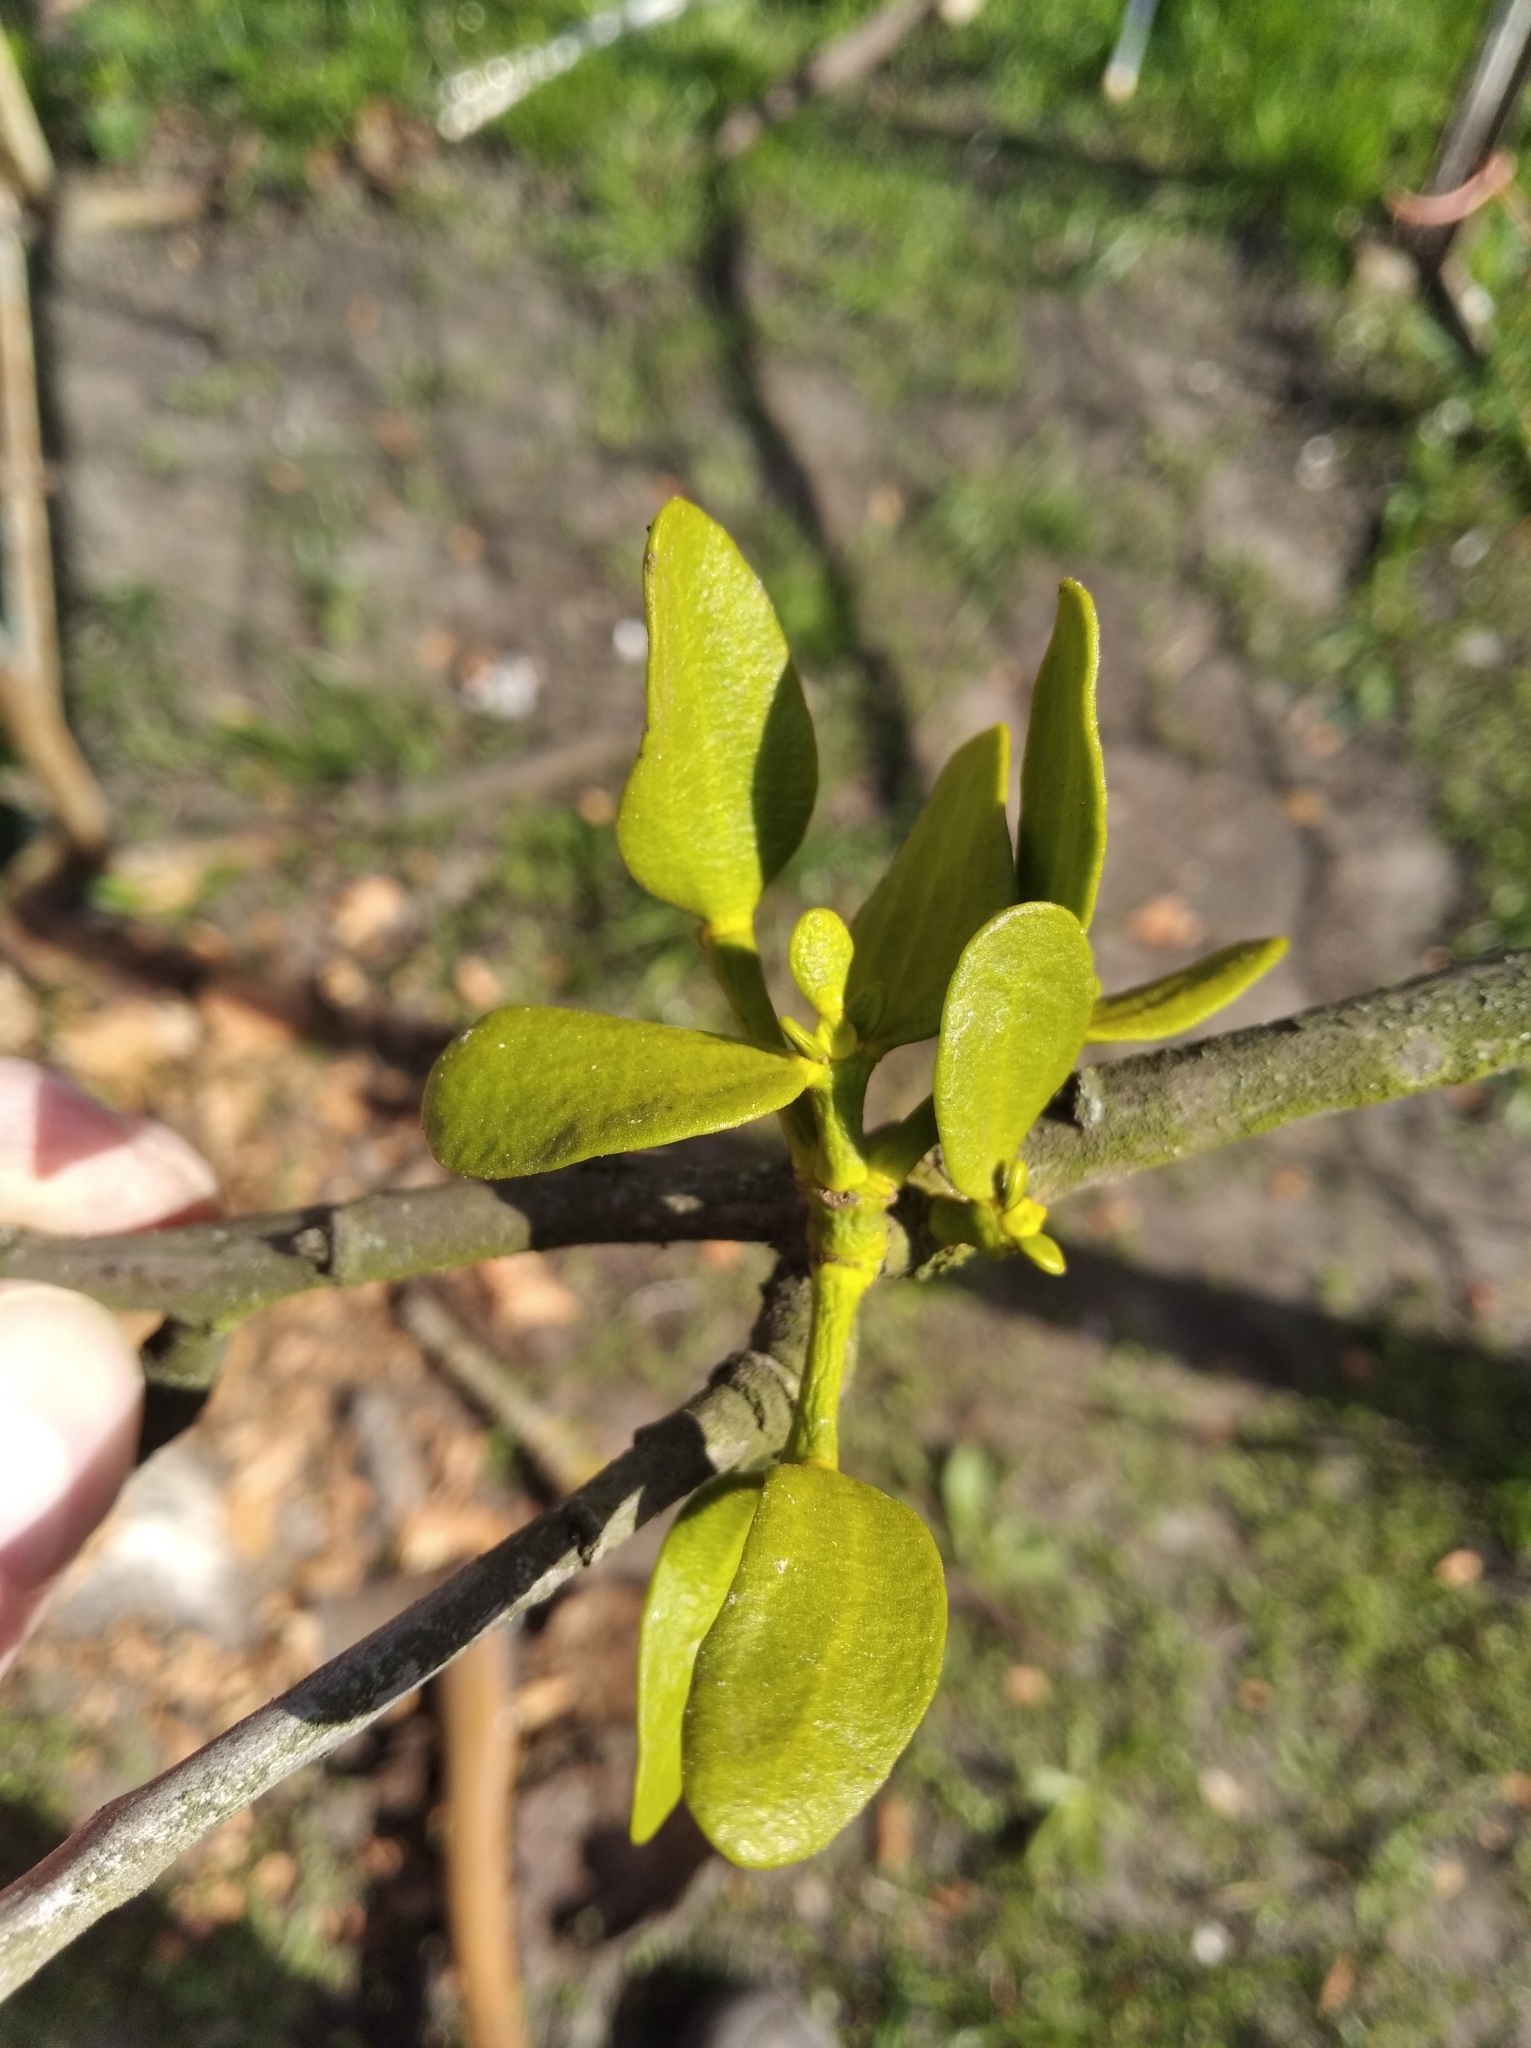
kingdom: Plantae
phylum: Tracheophyta
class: Magnoliopsida
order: Santalales
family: Viscaceae
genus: Viscum
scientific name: Viscum album
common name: Mistletoe
